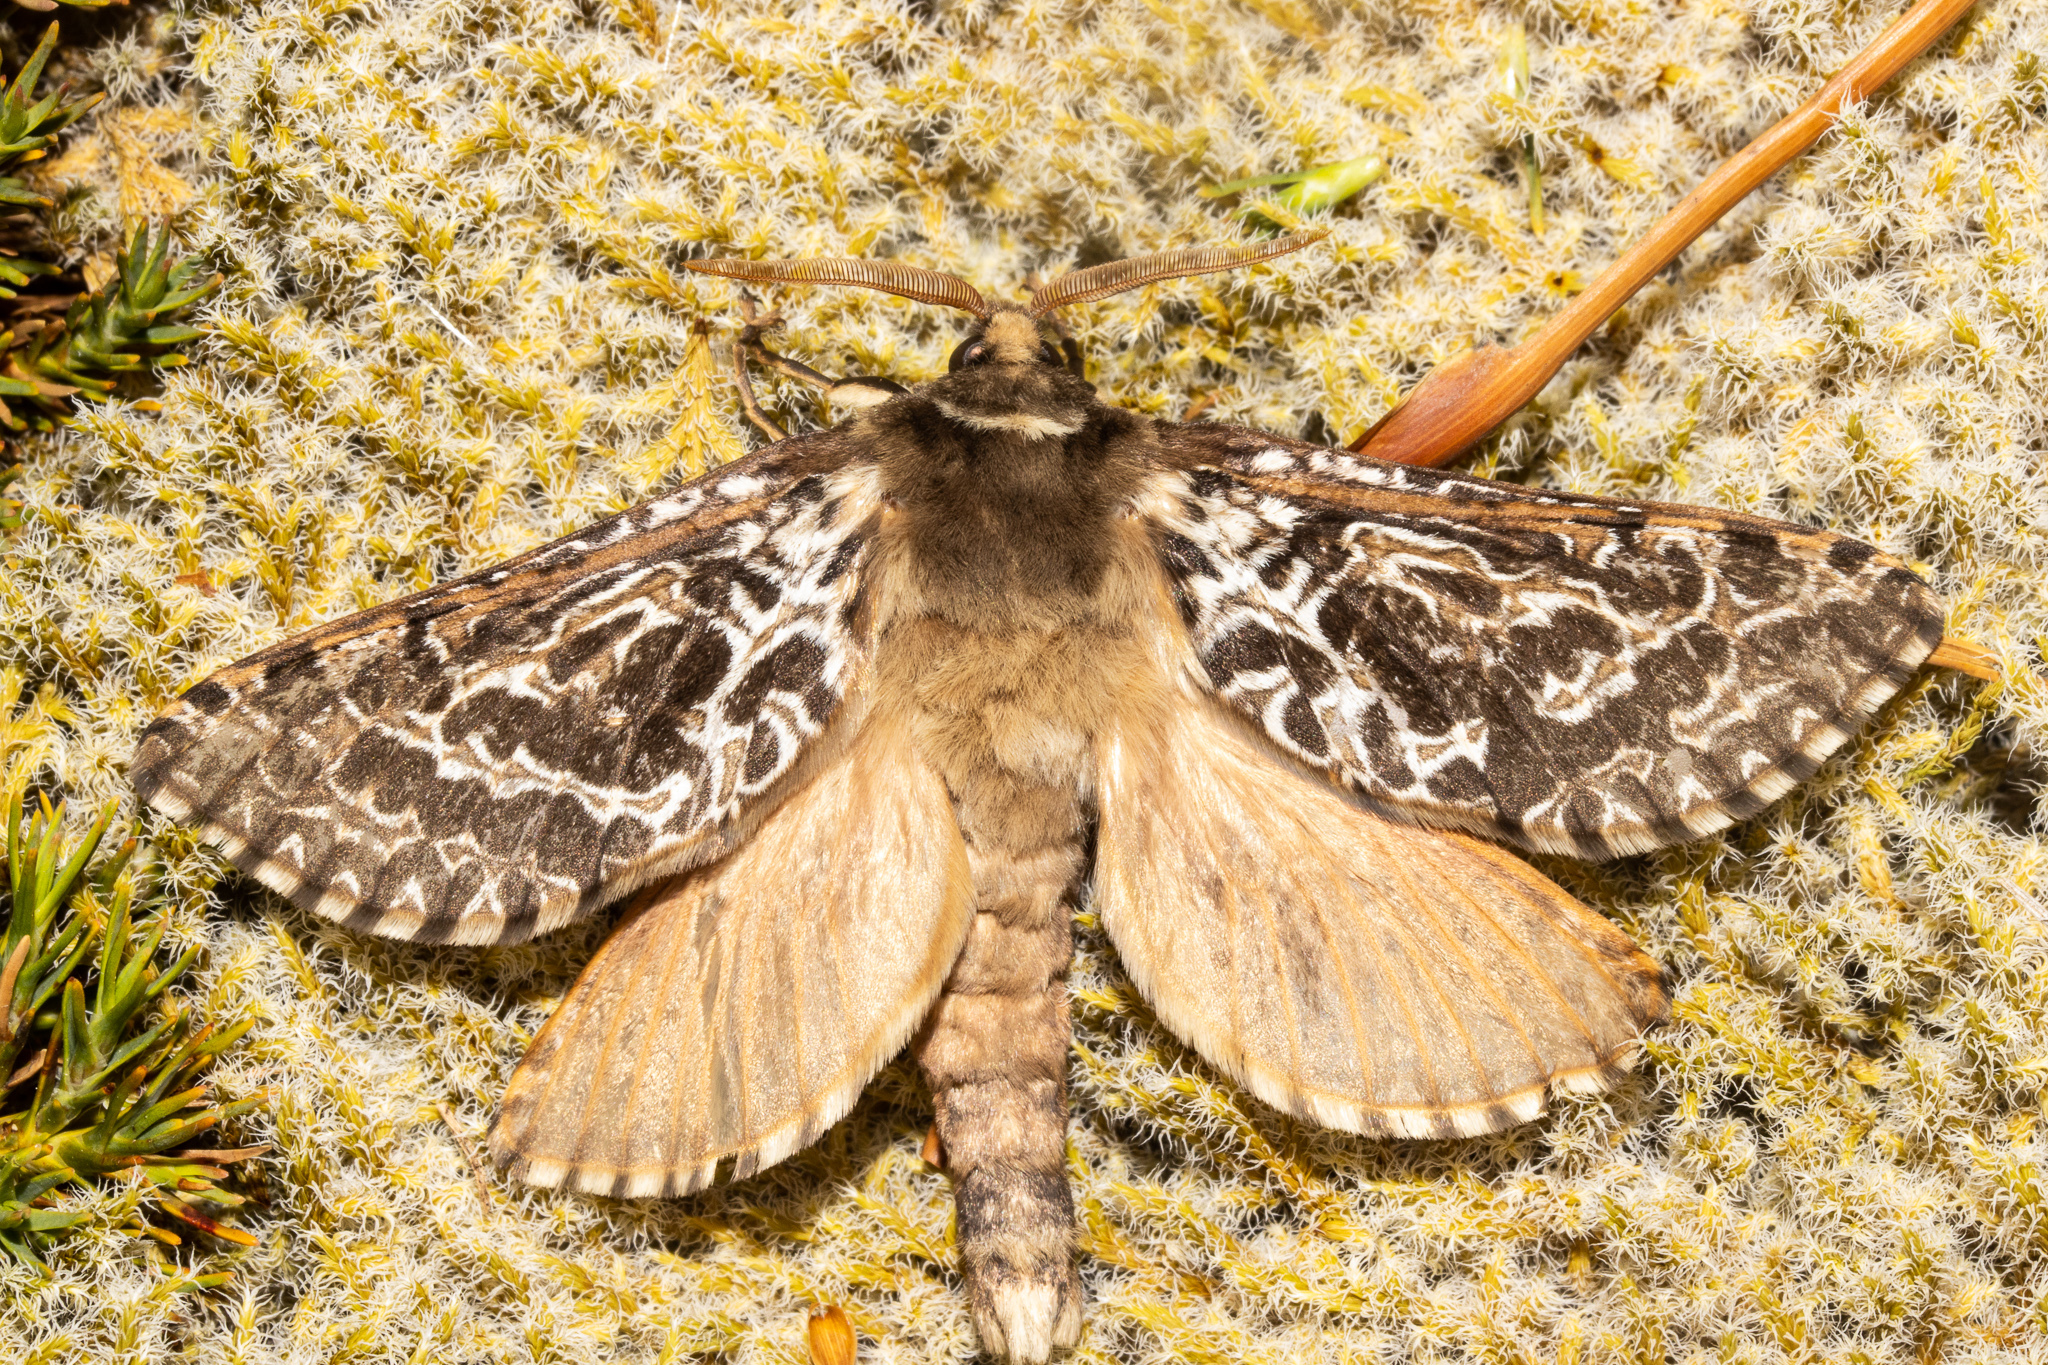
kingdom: Animalia
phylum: Arthropoda
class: Insecta
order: Lepidoptera
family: Hepialidae
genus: Aoraia
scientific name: Aoraia rufivena
